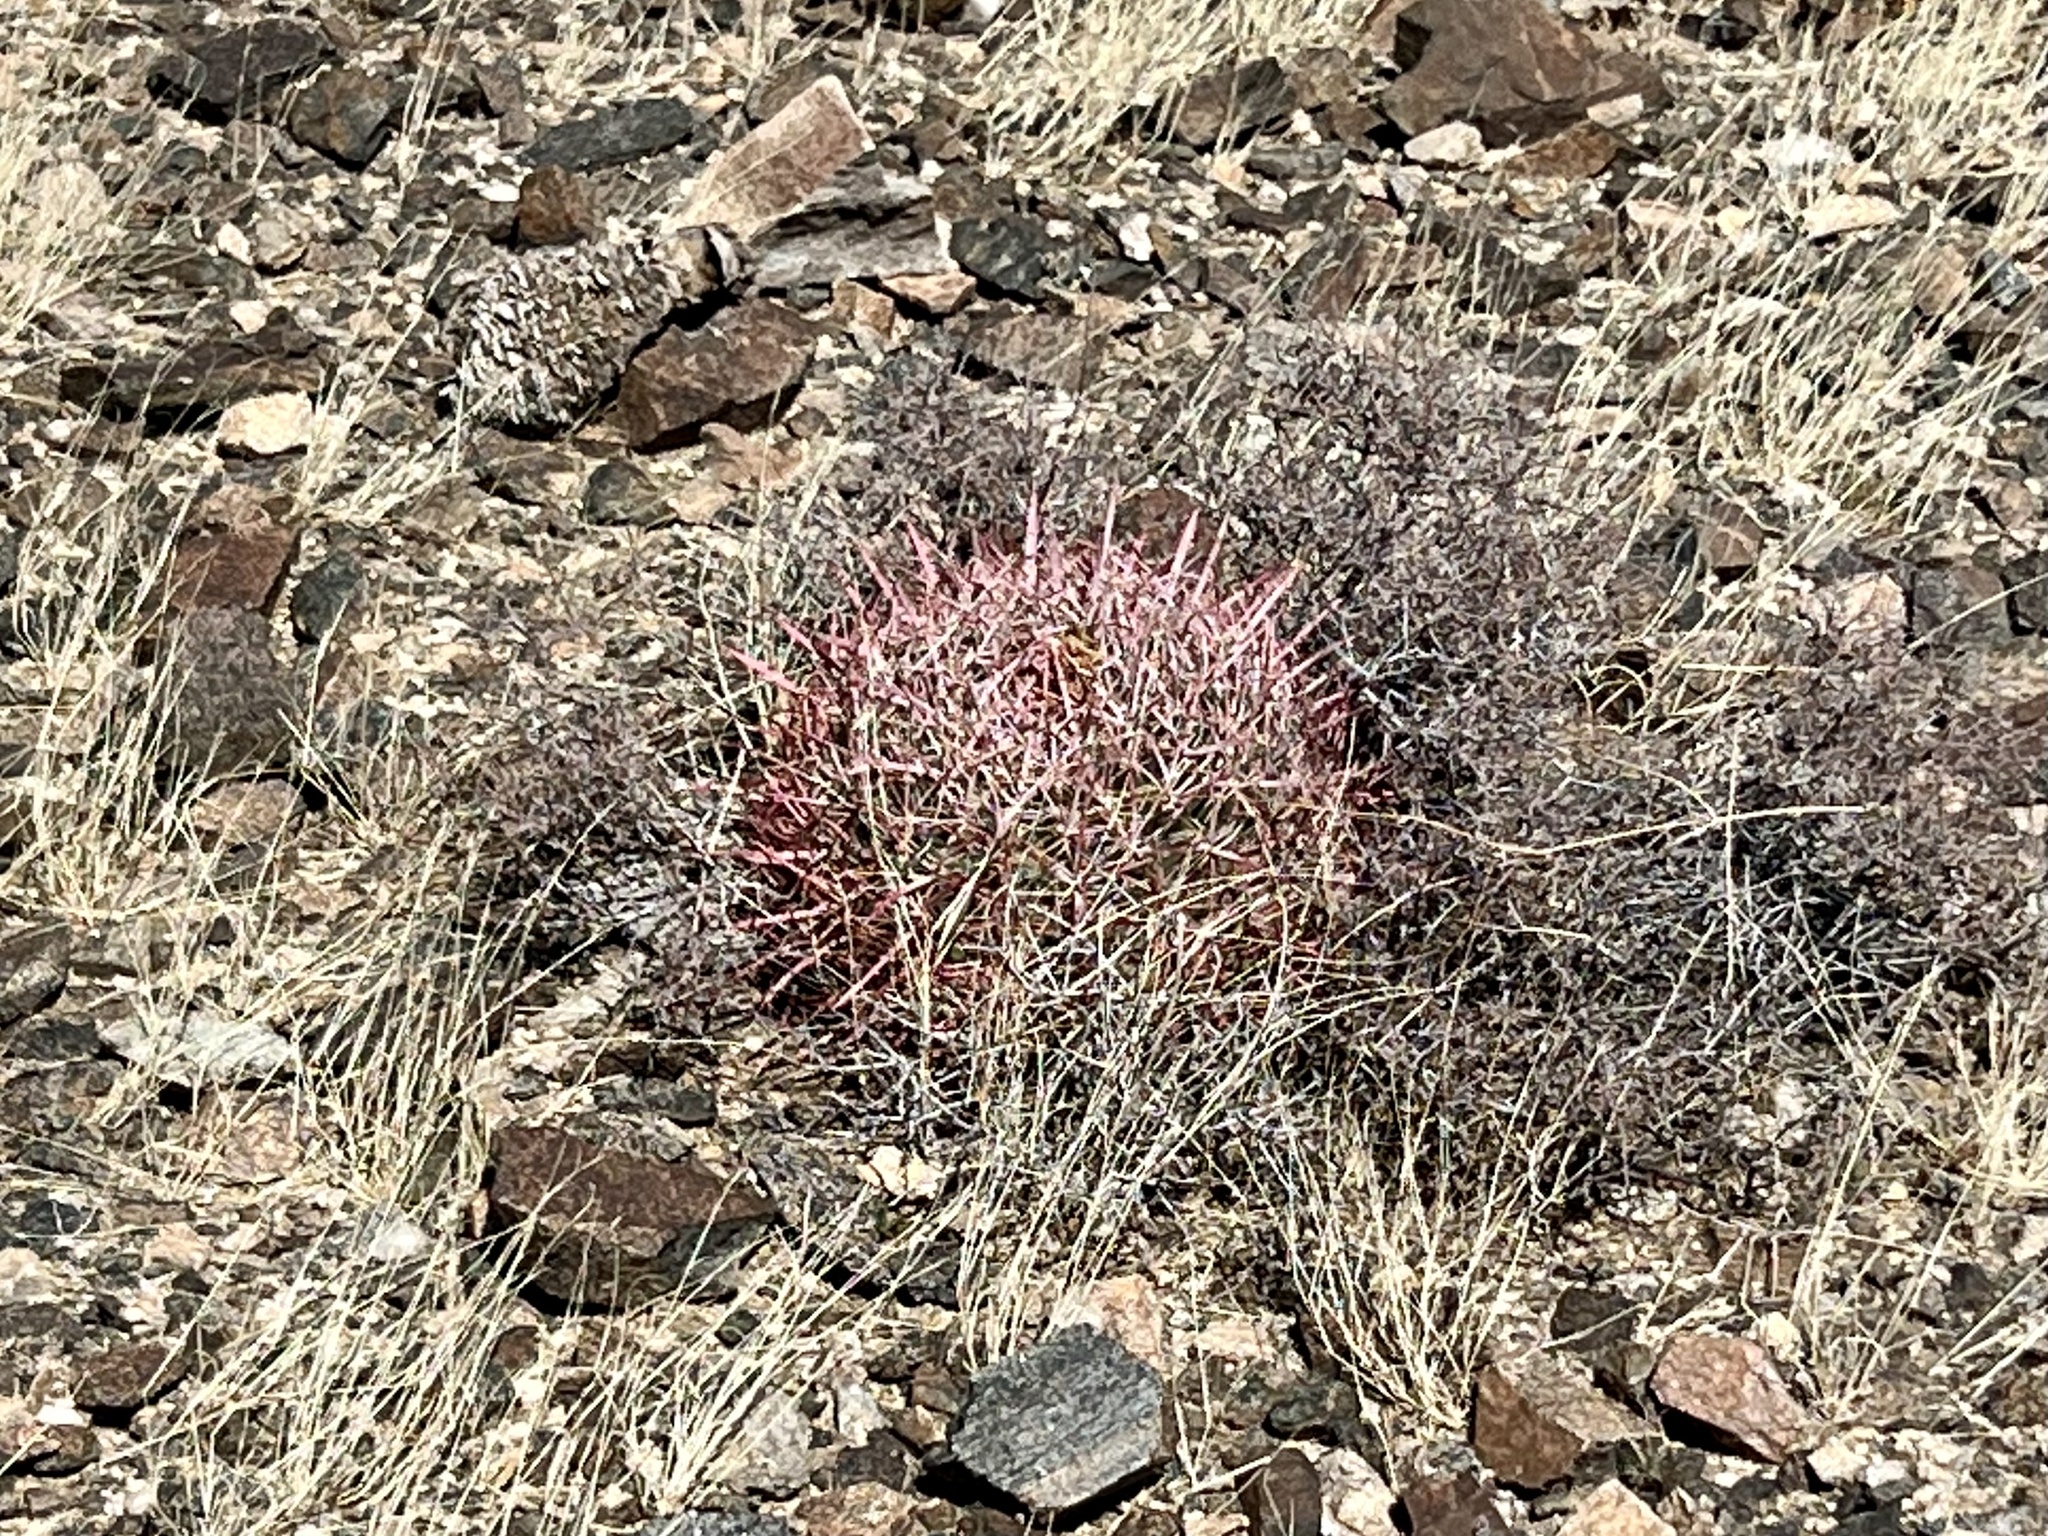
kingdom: Plantae
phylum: Tracheophyta
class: Magnoliopsida
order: Caryophyllales
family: Cactaceae
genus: Ferocactus
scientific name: Ferocactus cylindraceus
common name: California barrel cactus
